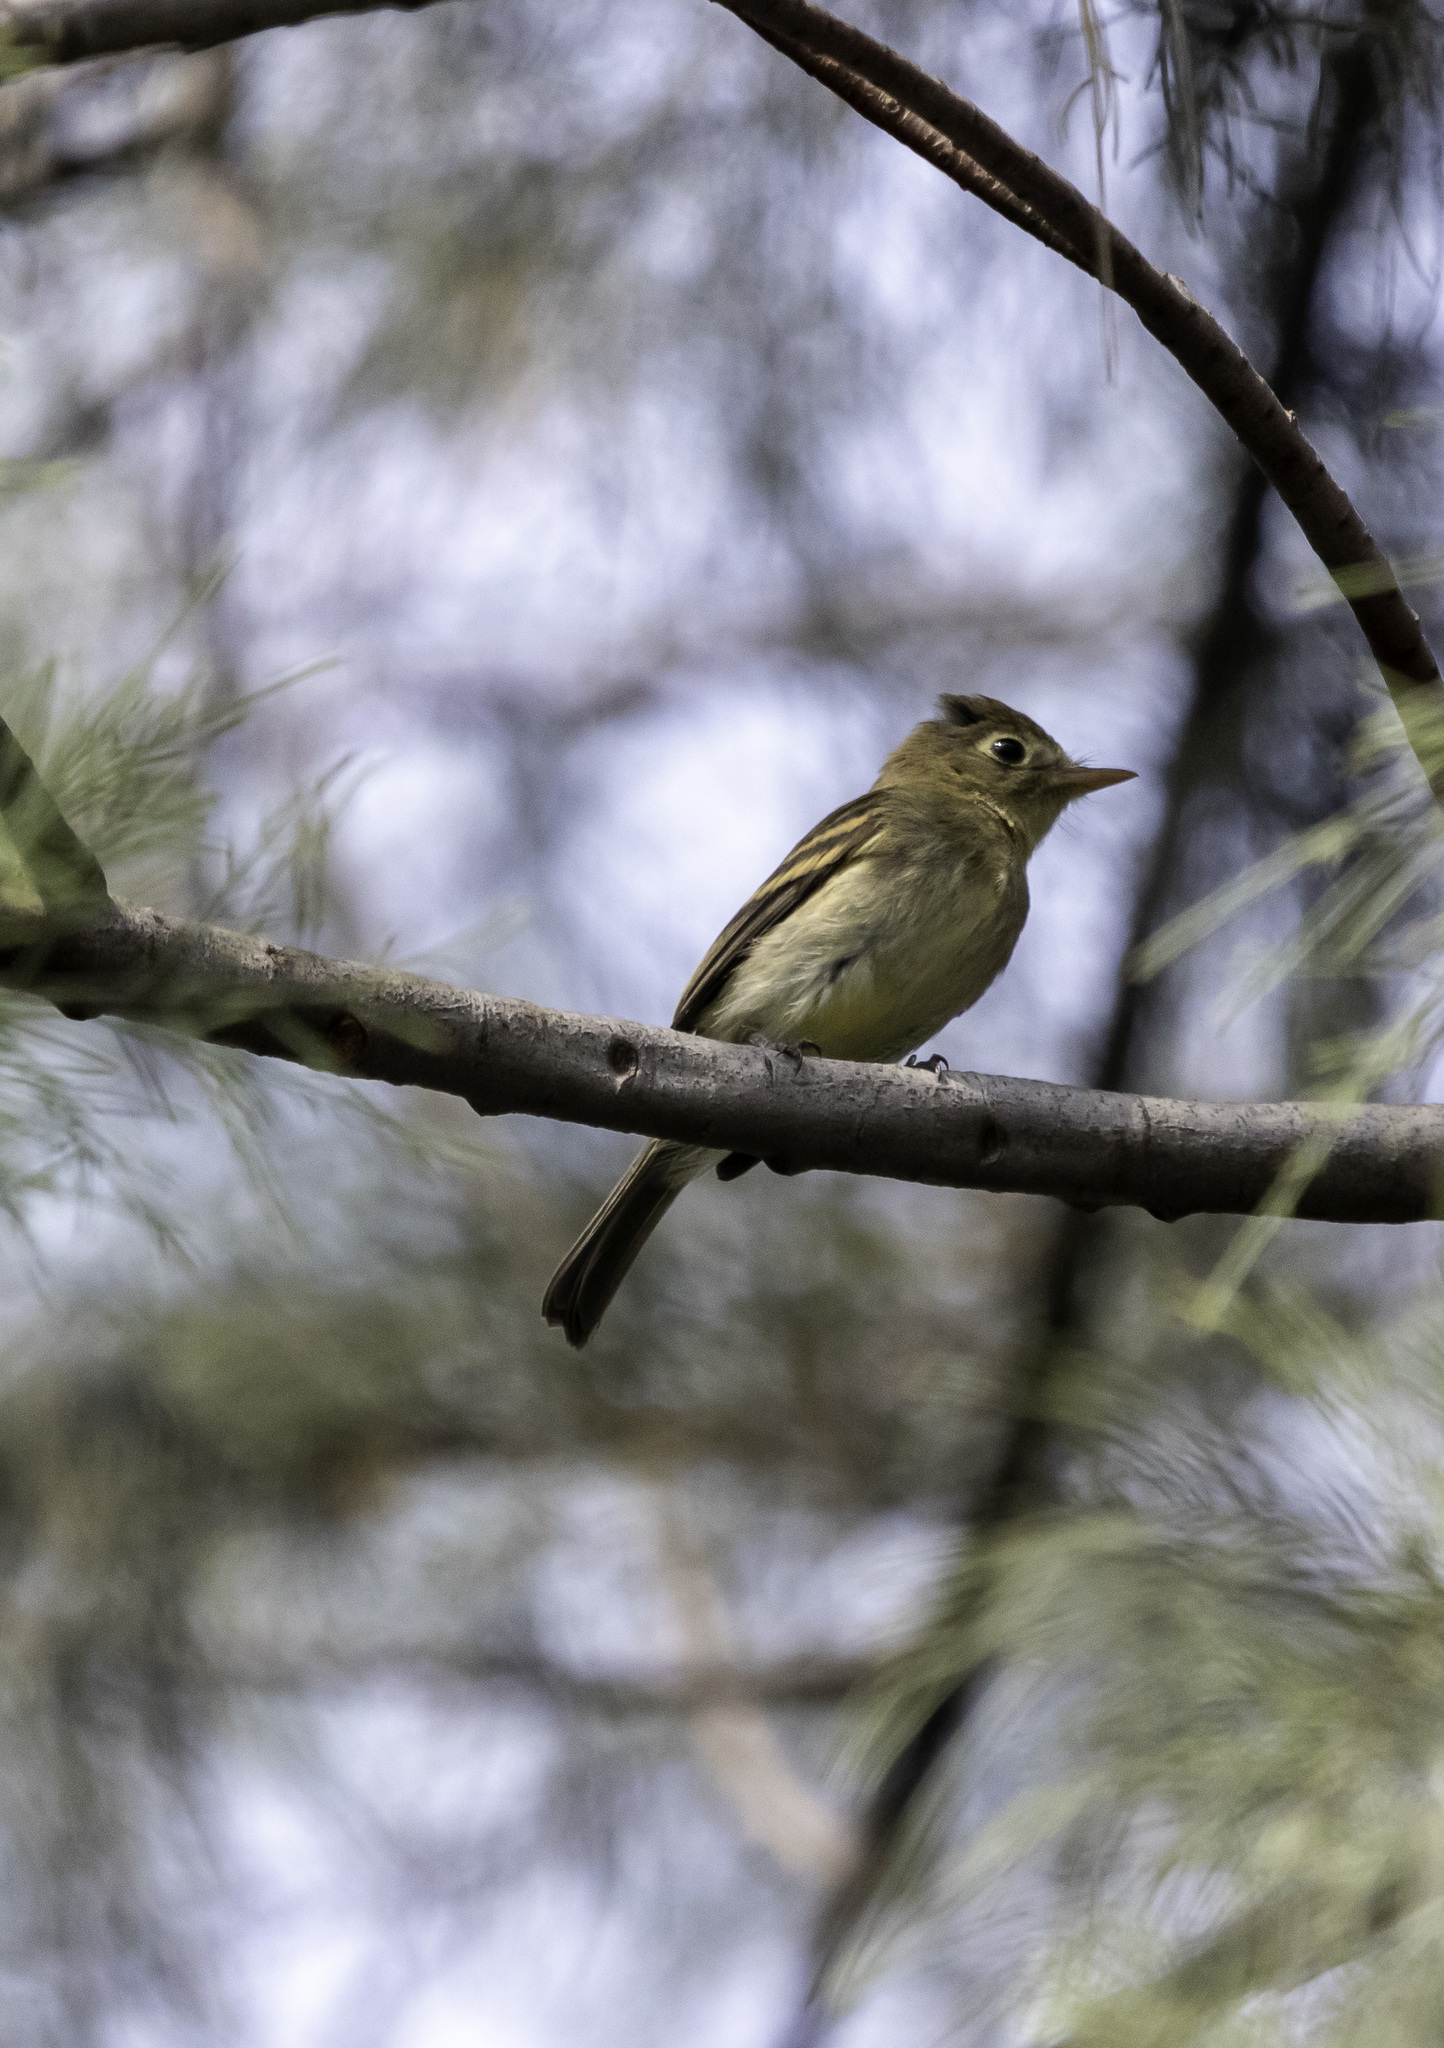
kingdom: Animalia
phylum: Chordata
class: Aves
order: Passeriformes
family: Tyrannidae
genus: Empidonax
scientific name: Empidonax difficilis
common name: Pacific-slope flycatcher
